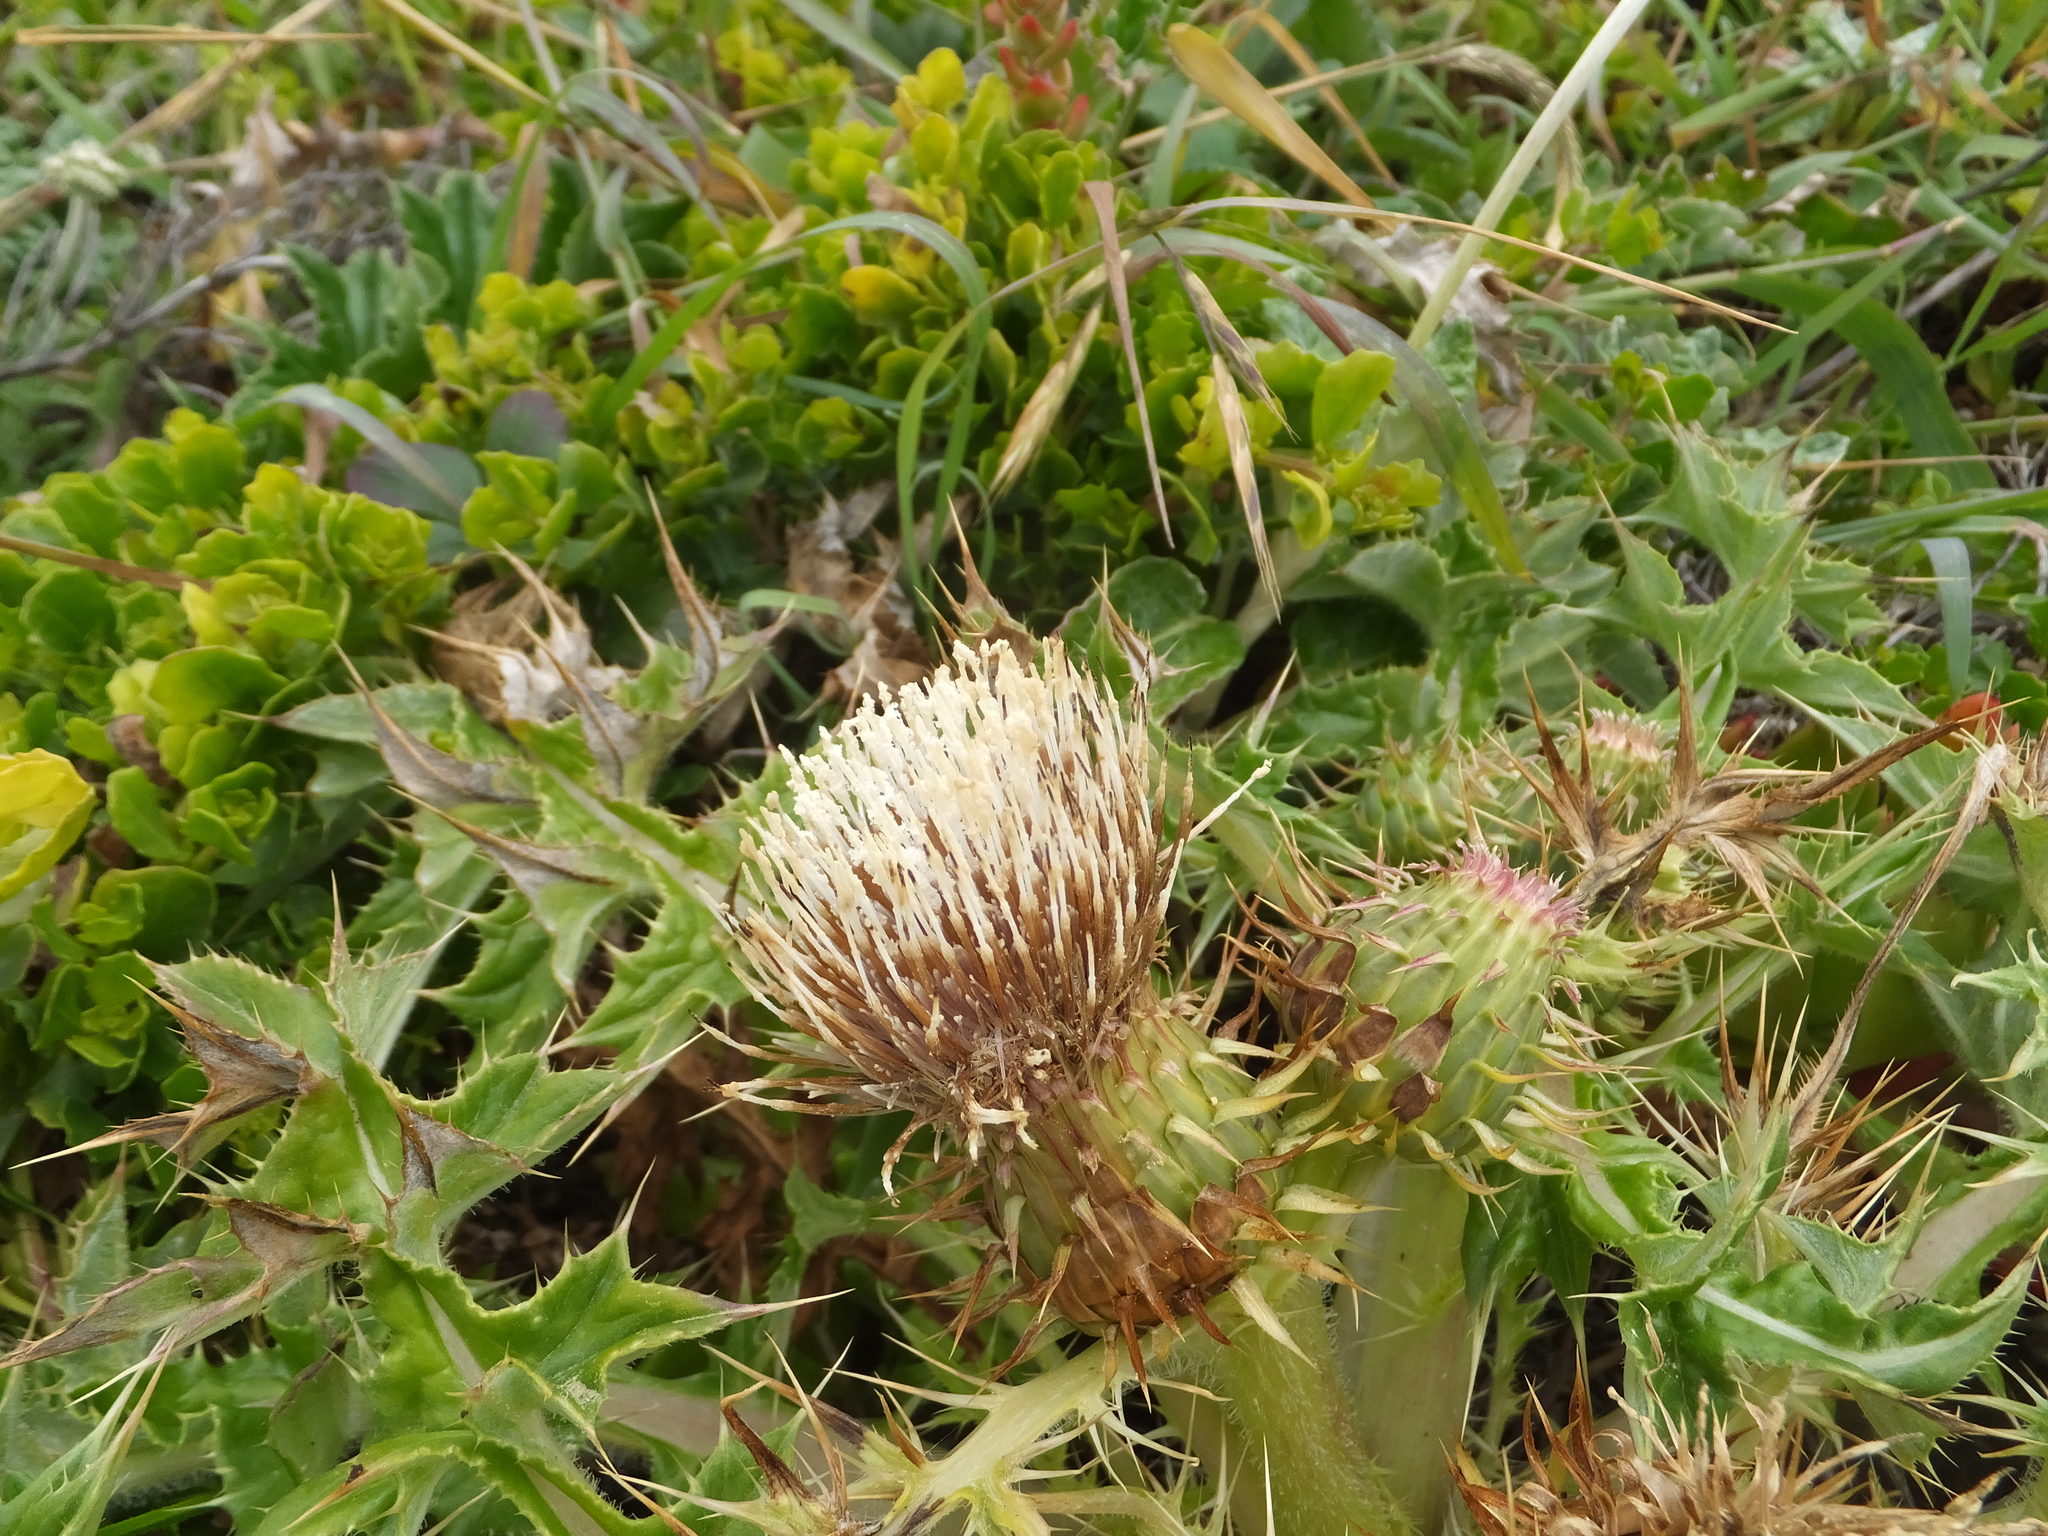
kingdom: Plantae
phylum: Tracheophyta
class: Magnoliopsida
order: Asterales
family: Asteraceae
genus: Cirsium
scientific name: Cirsium quercetorum
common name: Alameda county thistle
